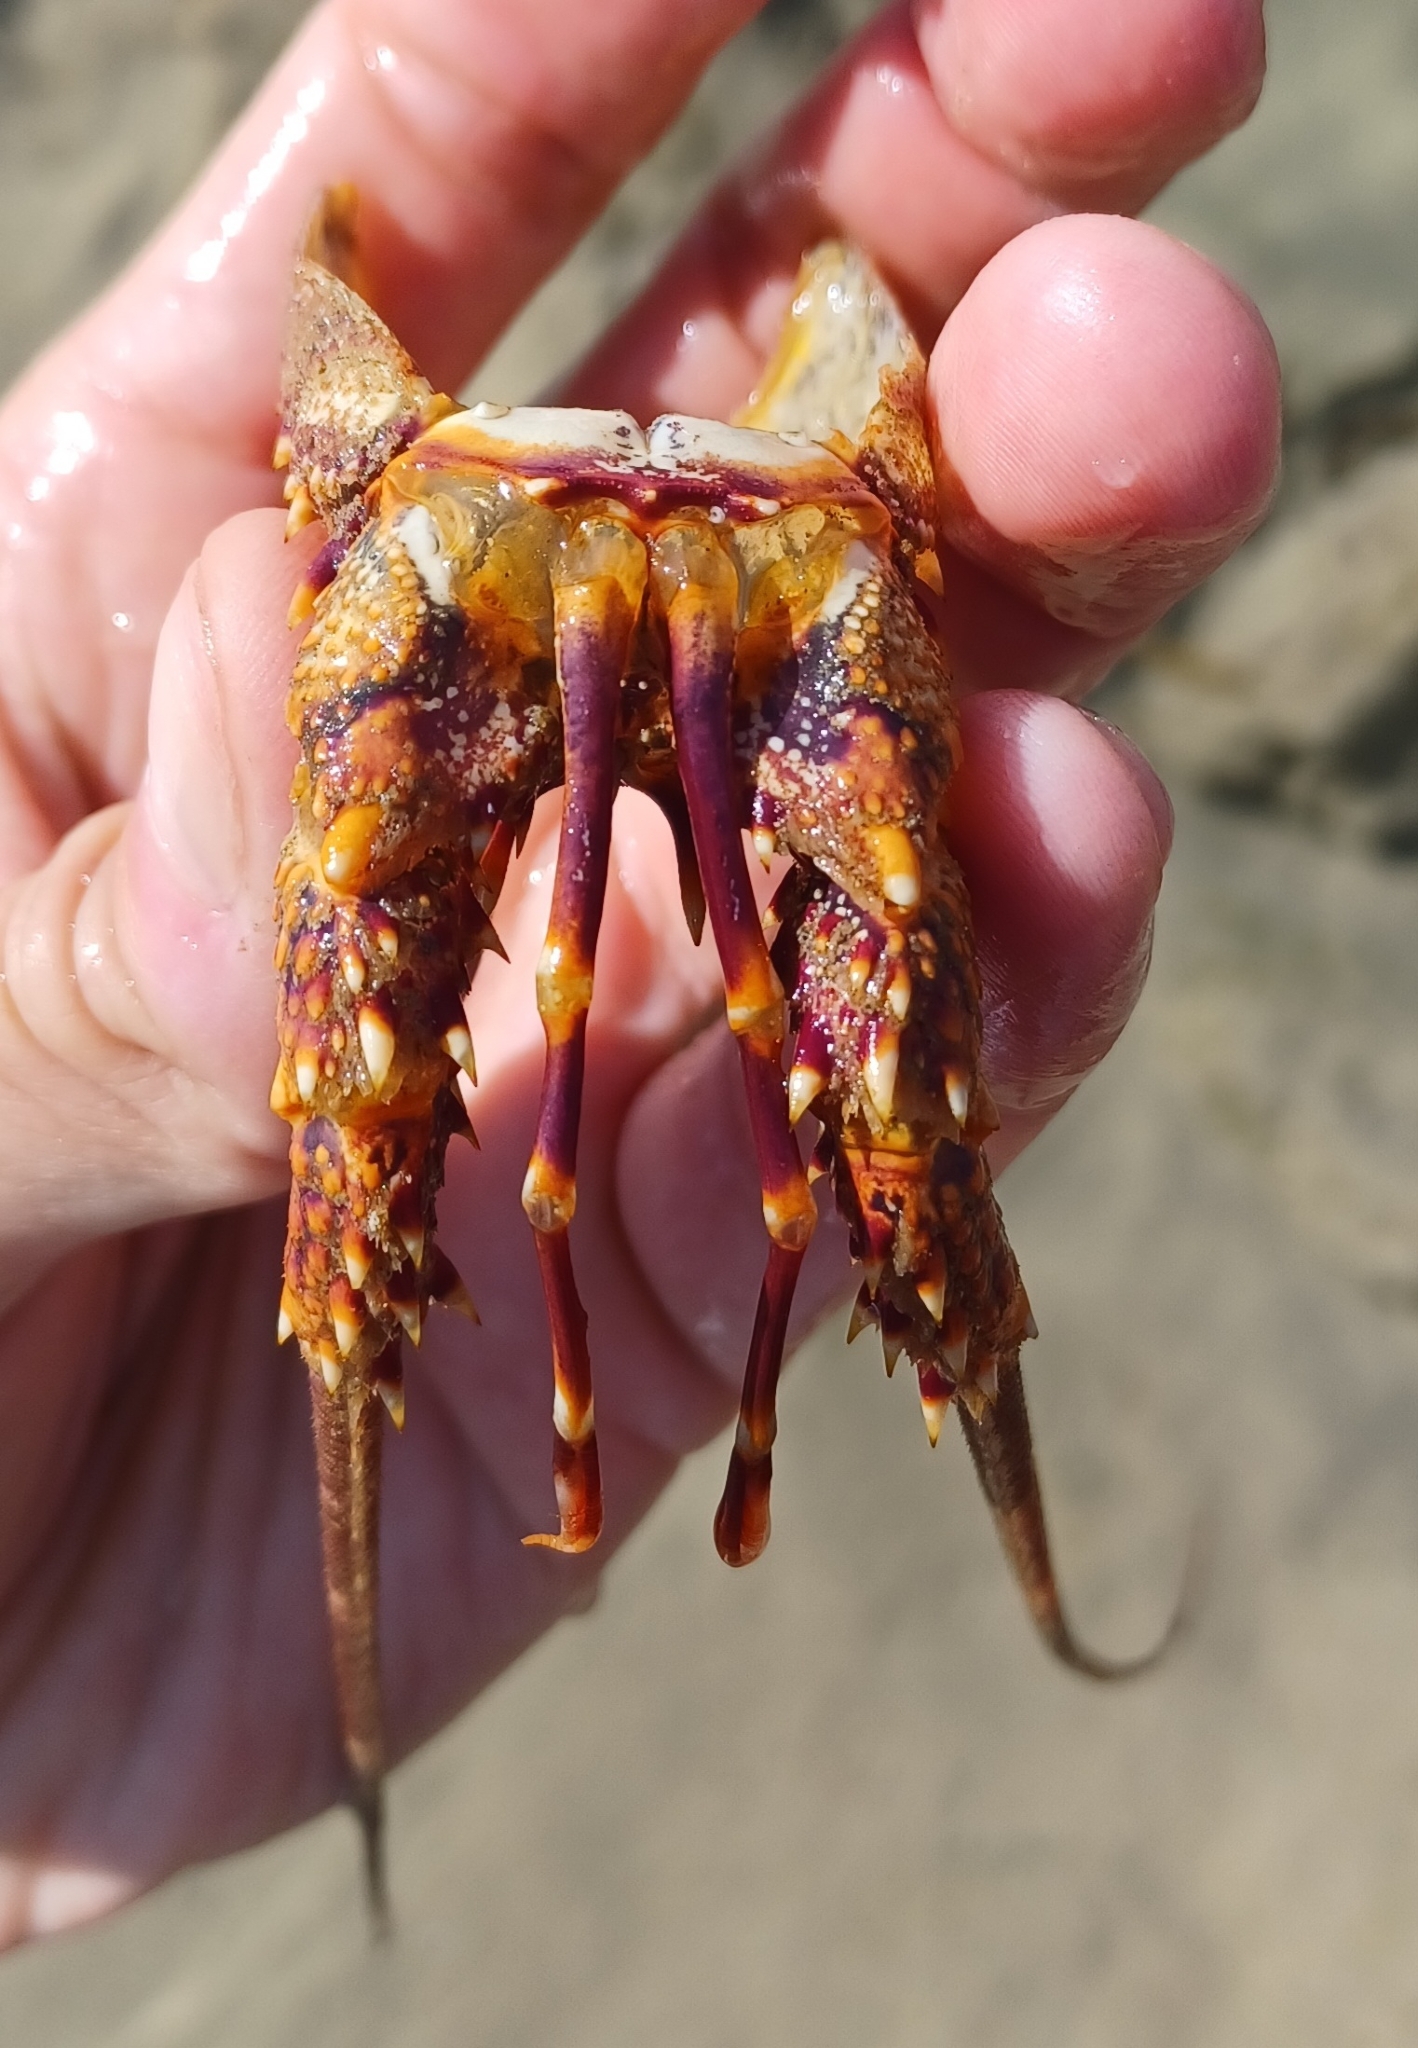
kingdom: Animalia
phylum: Arthropoda
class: Malacostraca
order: Decapoda
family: Palinuridae
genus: Jasus
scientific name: Jasus edwardsii
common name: Red rock lobster
